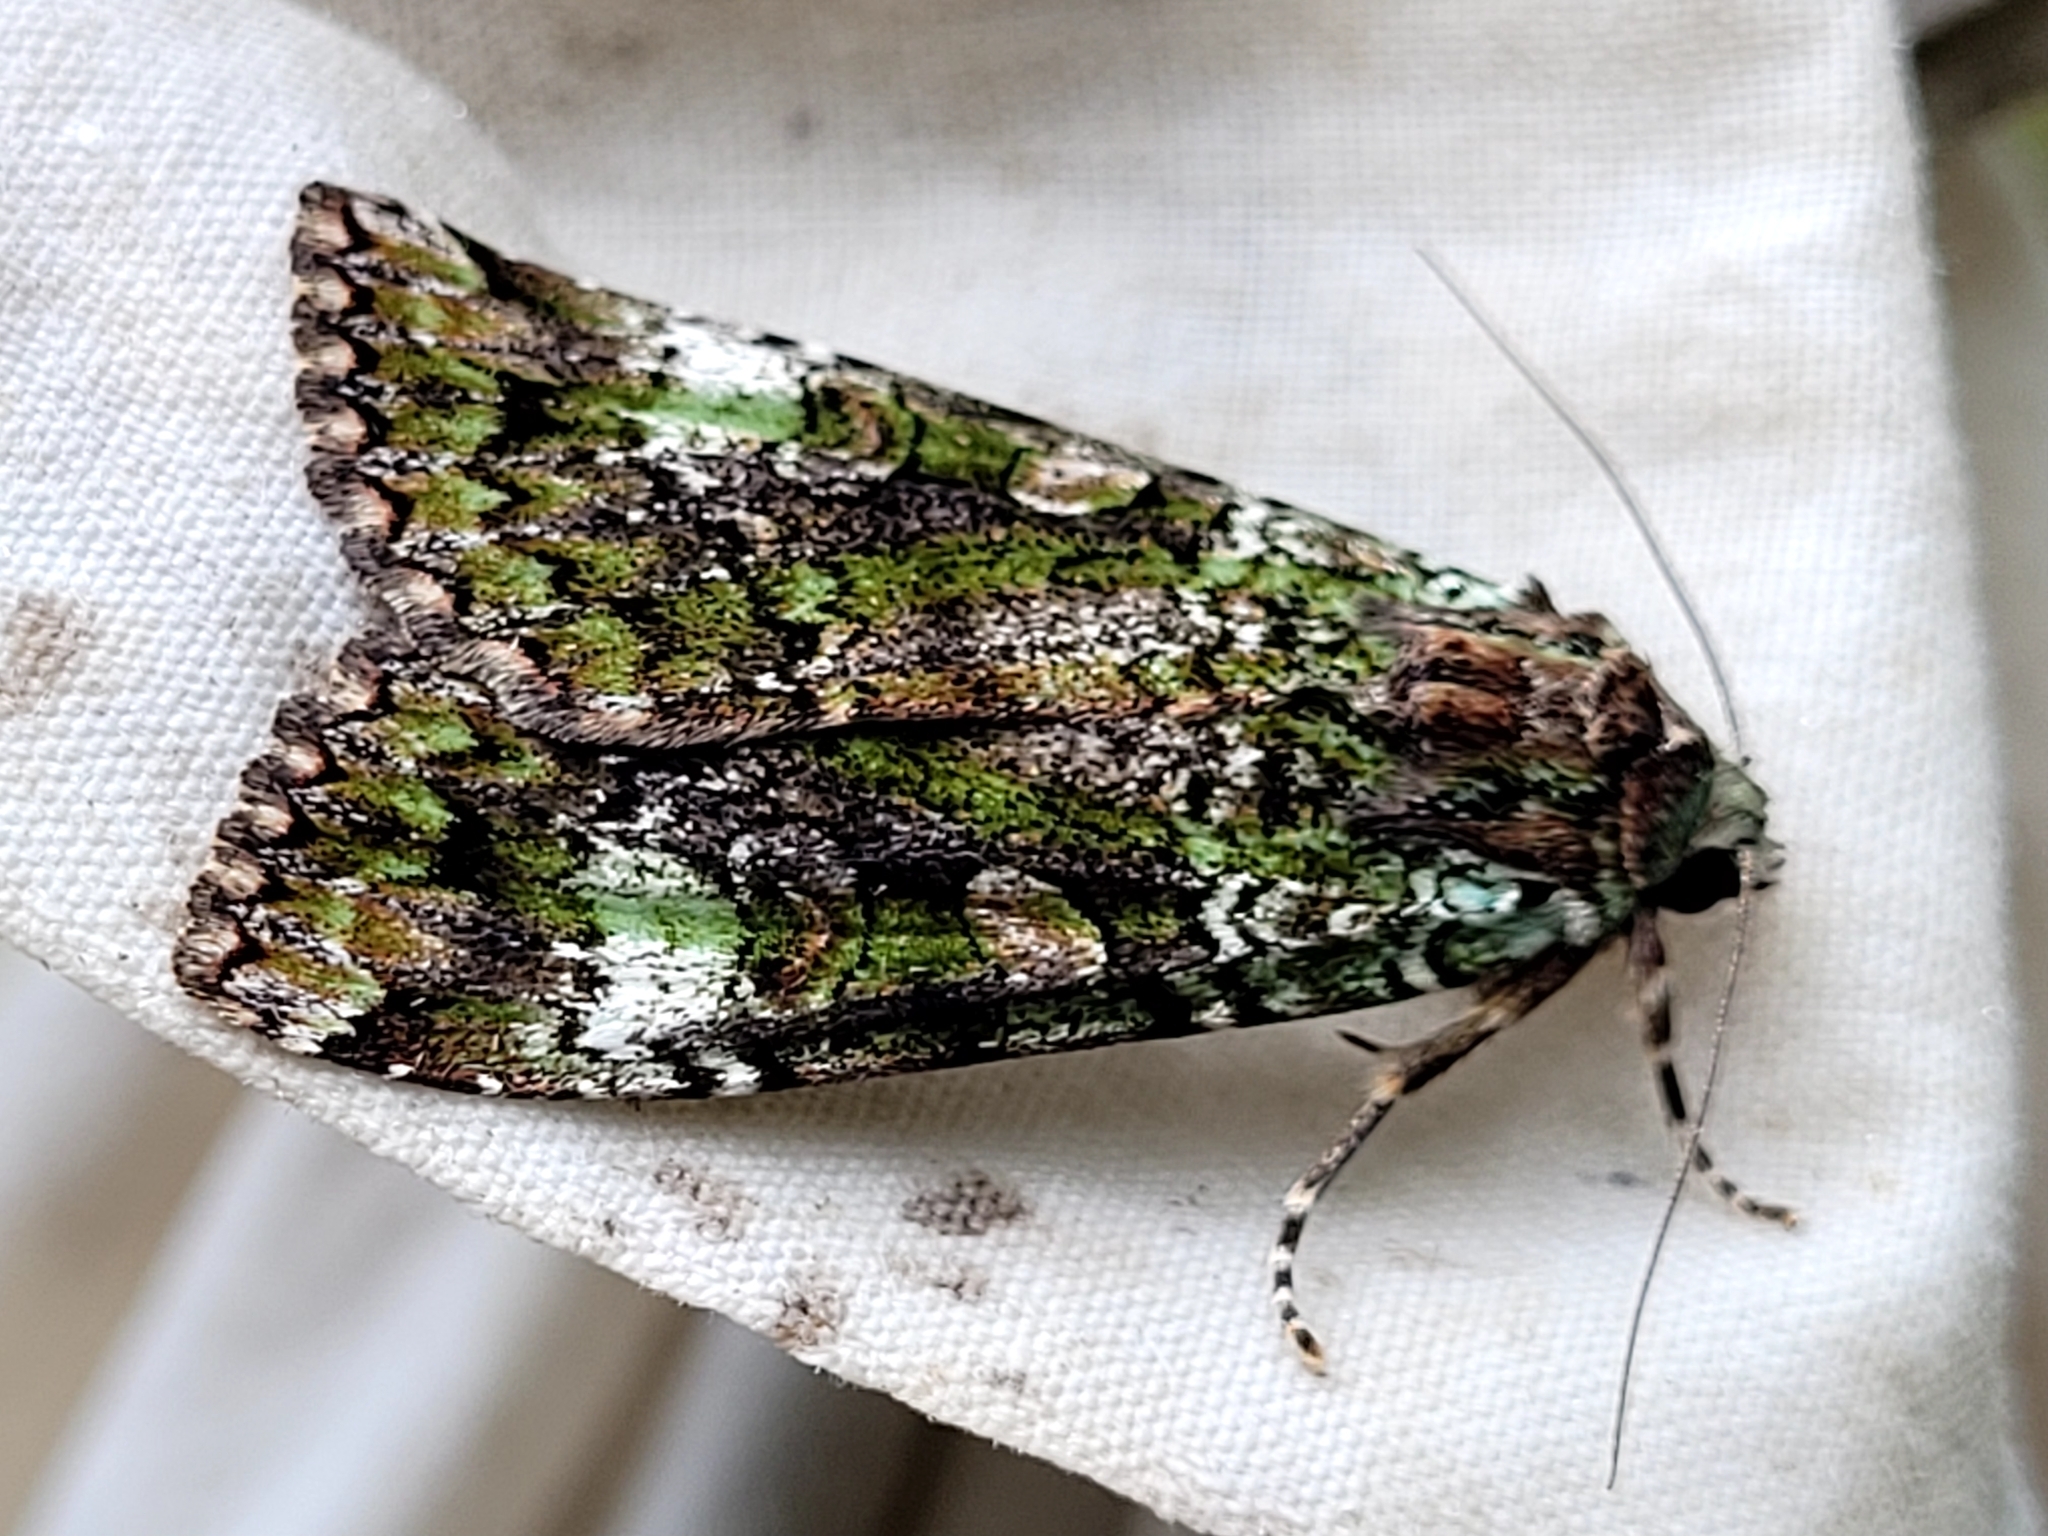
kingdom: Animalia
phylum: Arthropoda
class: Insecta
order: Lepidoptera
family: Noctuidae
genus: Anaplectoides
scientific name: Anaplectoides prasina
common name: Green arches
